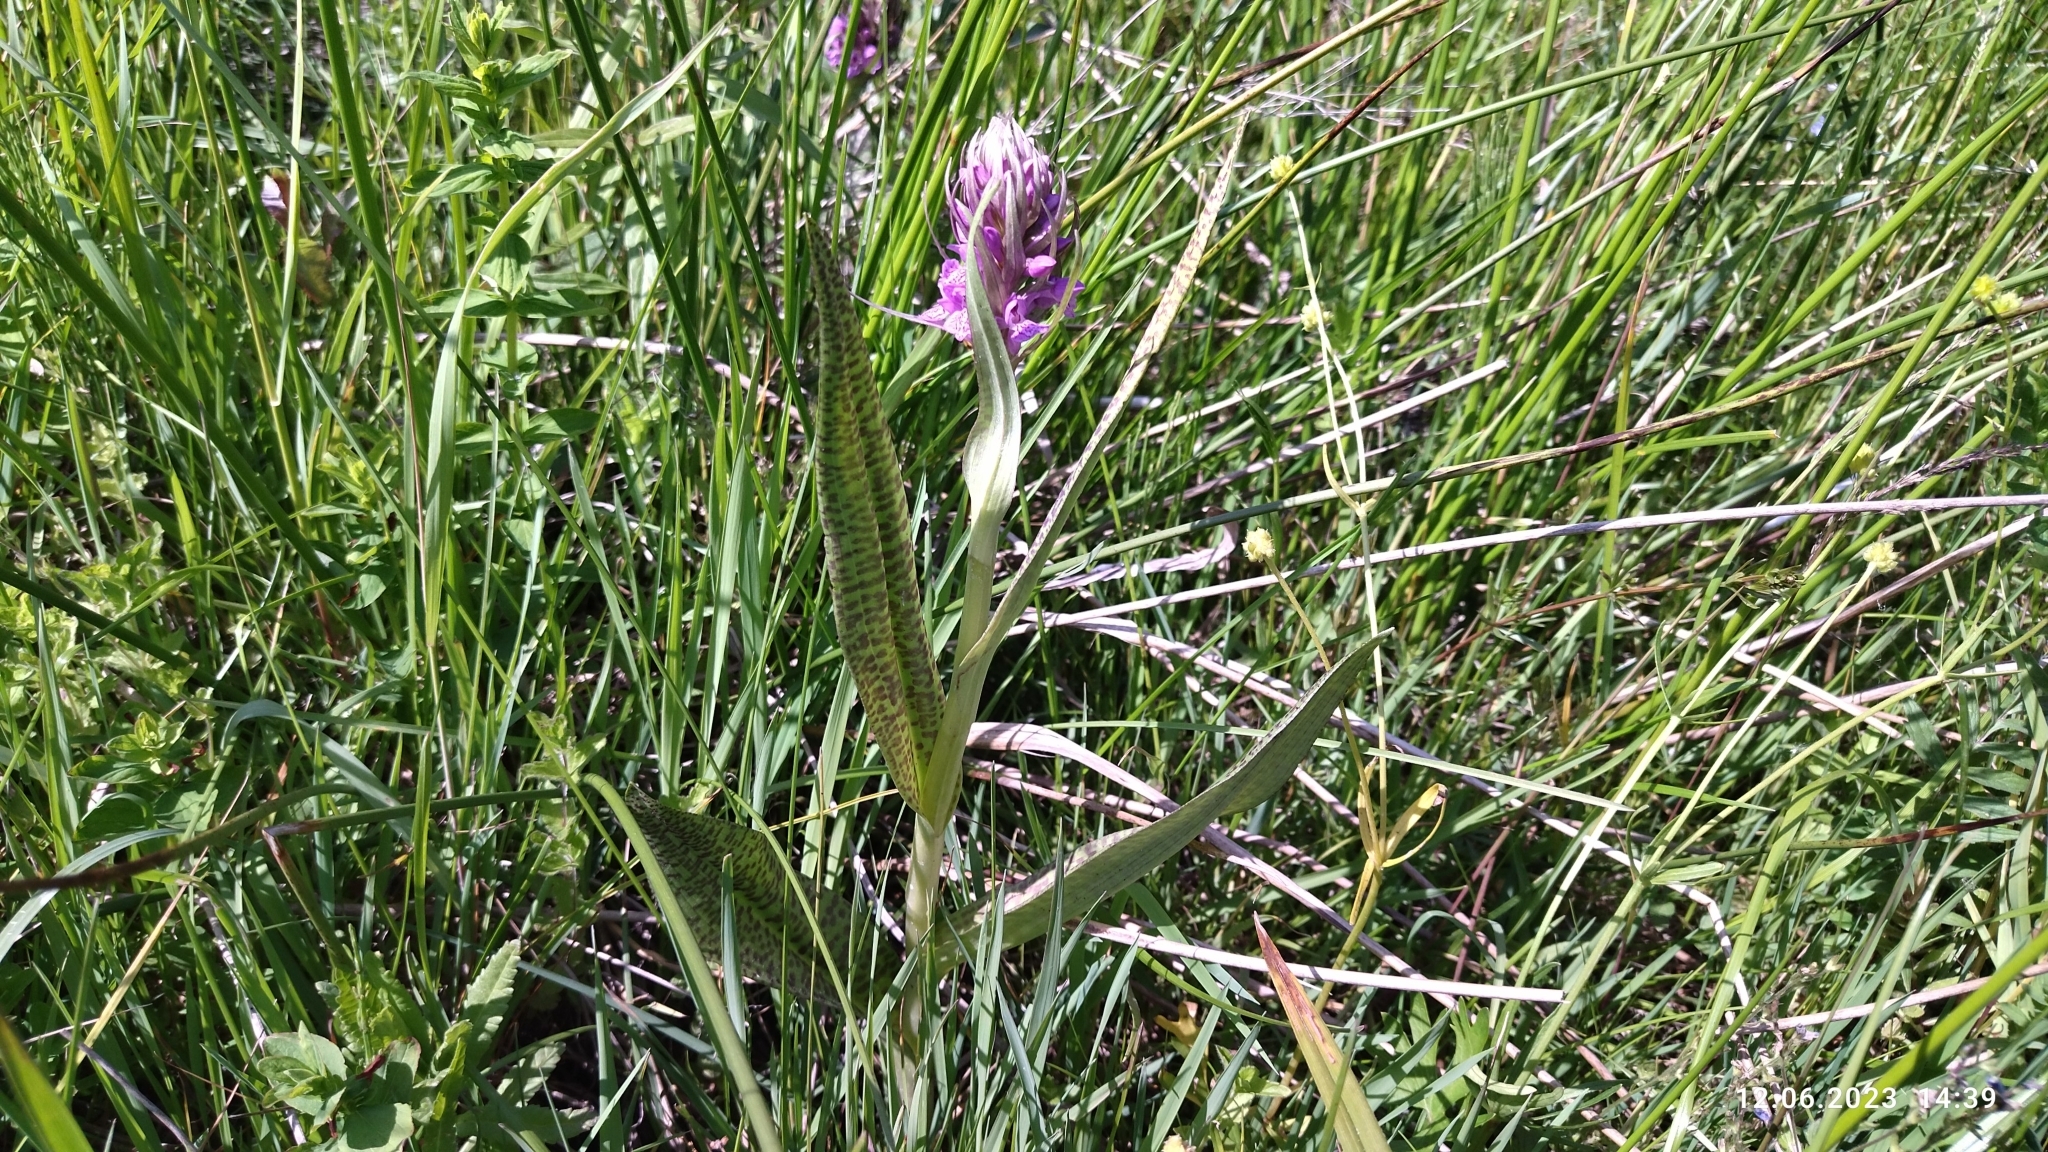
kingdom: Plantae
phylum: Tracheophyta
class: Liliopsida
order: Asparagales
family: Orchidaceae
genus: Dactylorhiza
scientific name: Dactylorhiza majalis
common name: Marsh orchid
